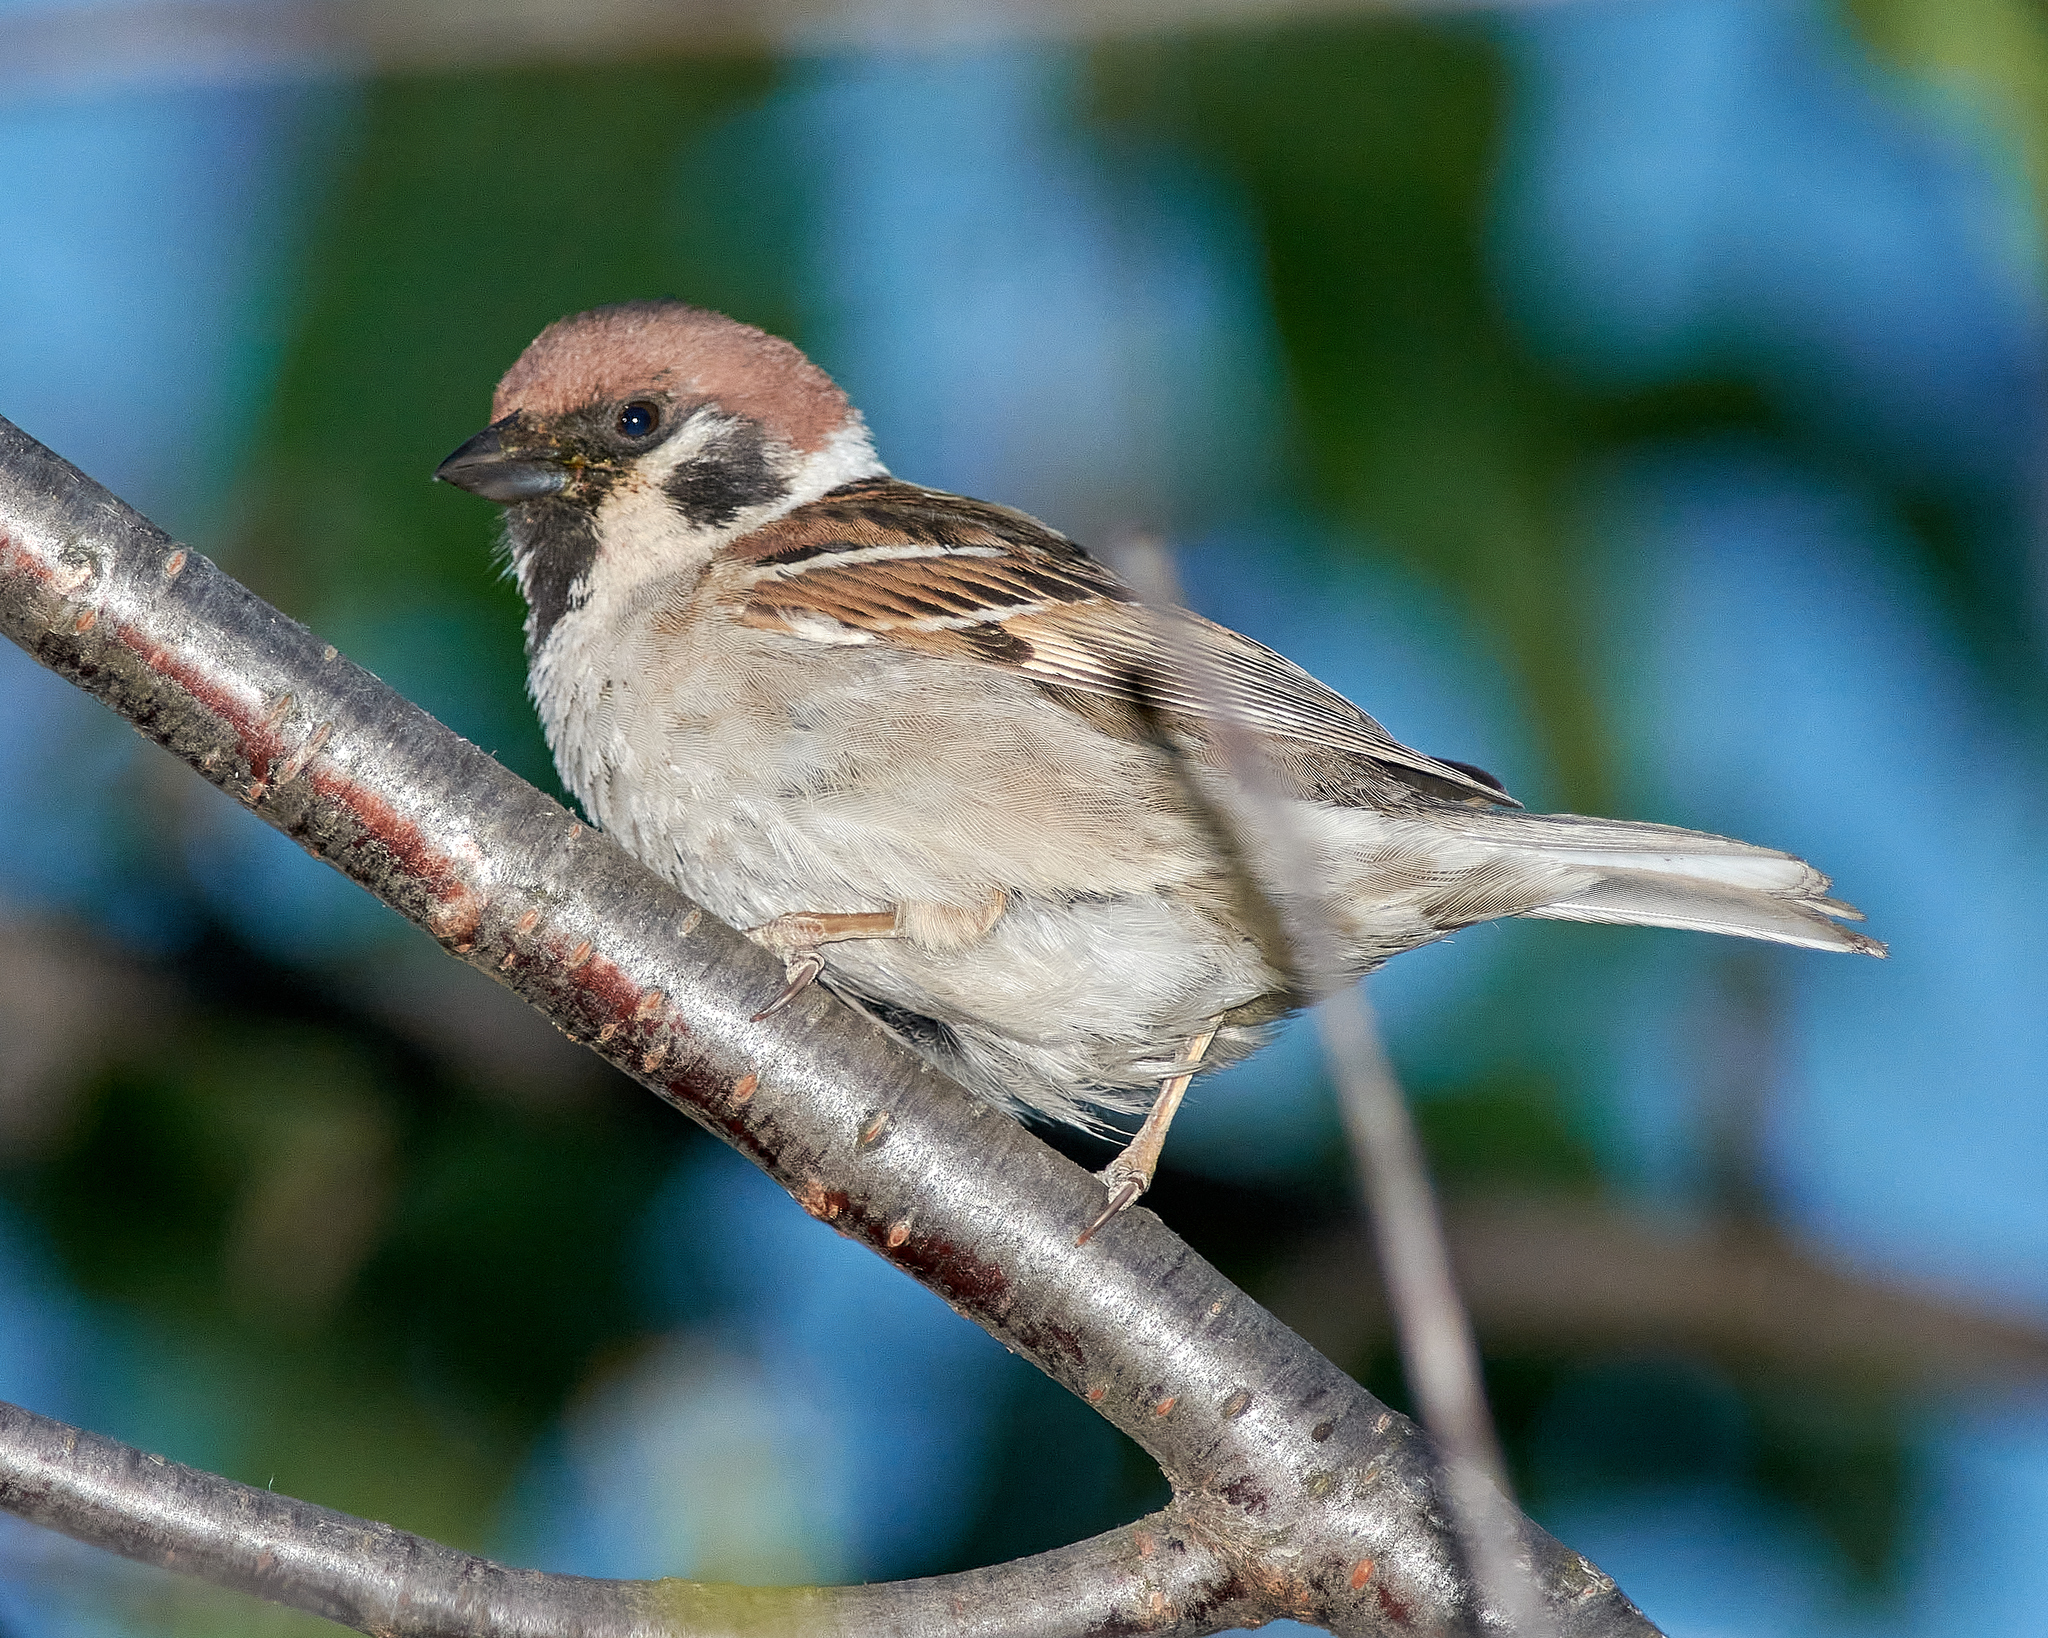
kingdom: Animalia
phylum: Chordata
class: Aves
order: Passeriformes
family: Passeridae
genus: Passer
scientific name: Passer montanus
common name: Eurasian tree sparrow
